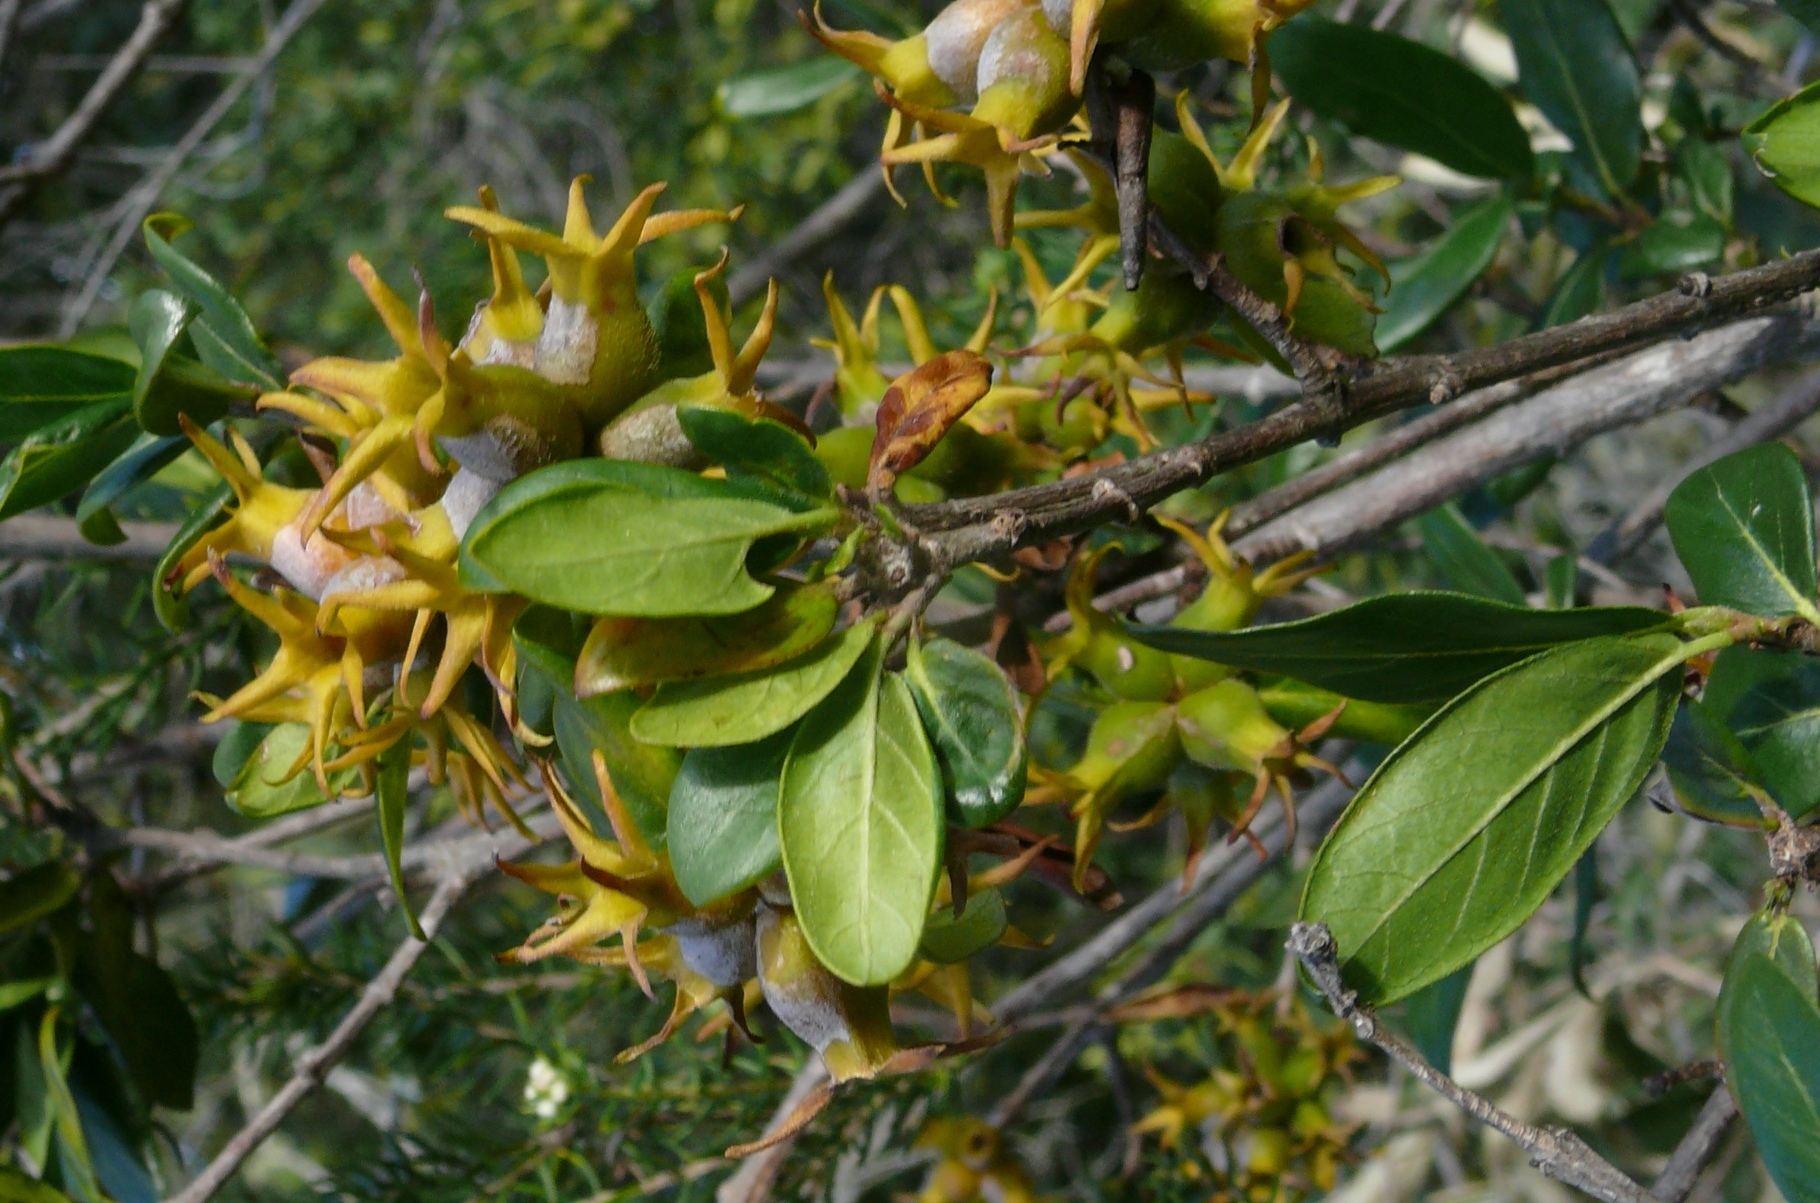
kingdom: Plantae
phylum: Tracheophyta
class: Magnoliopsida
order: Gentianales
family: Rubiaceae
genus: Burchellia
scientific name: Burchellia bubalina
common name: Wild pomegranate
